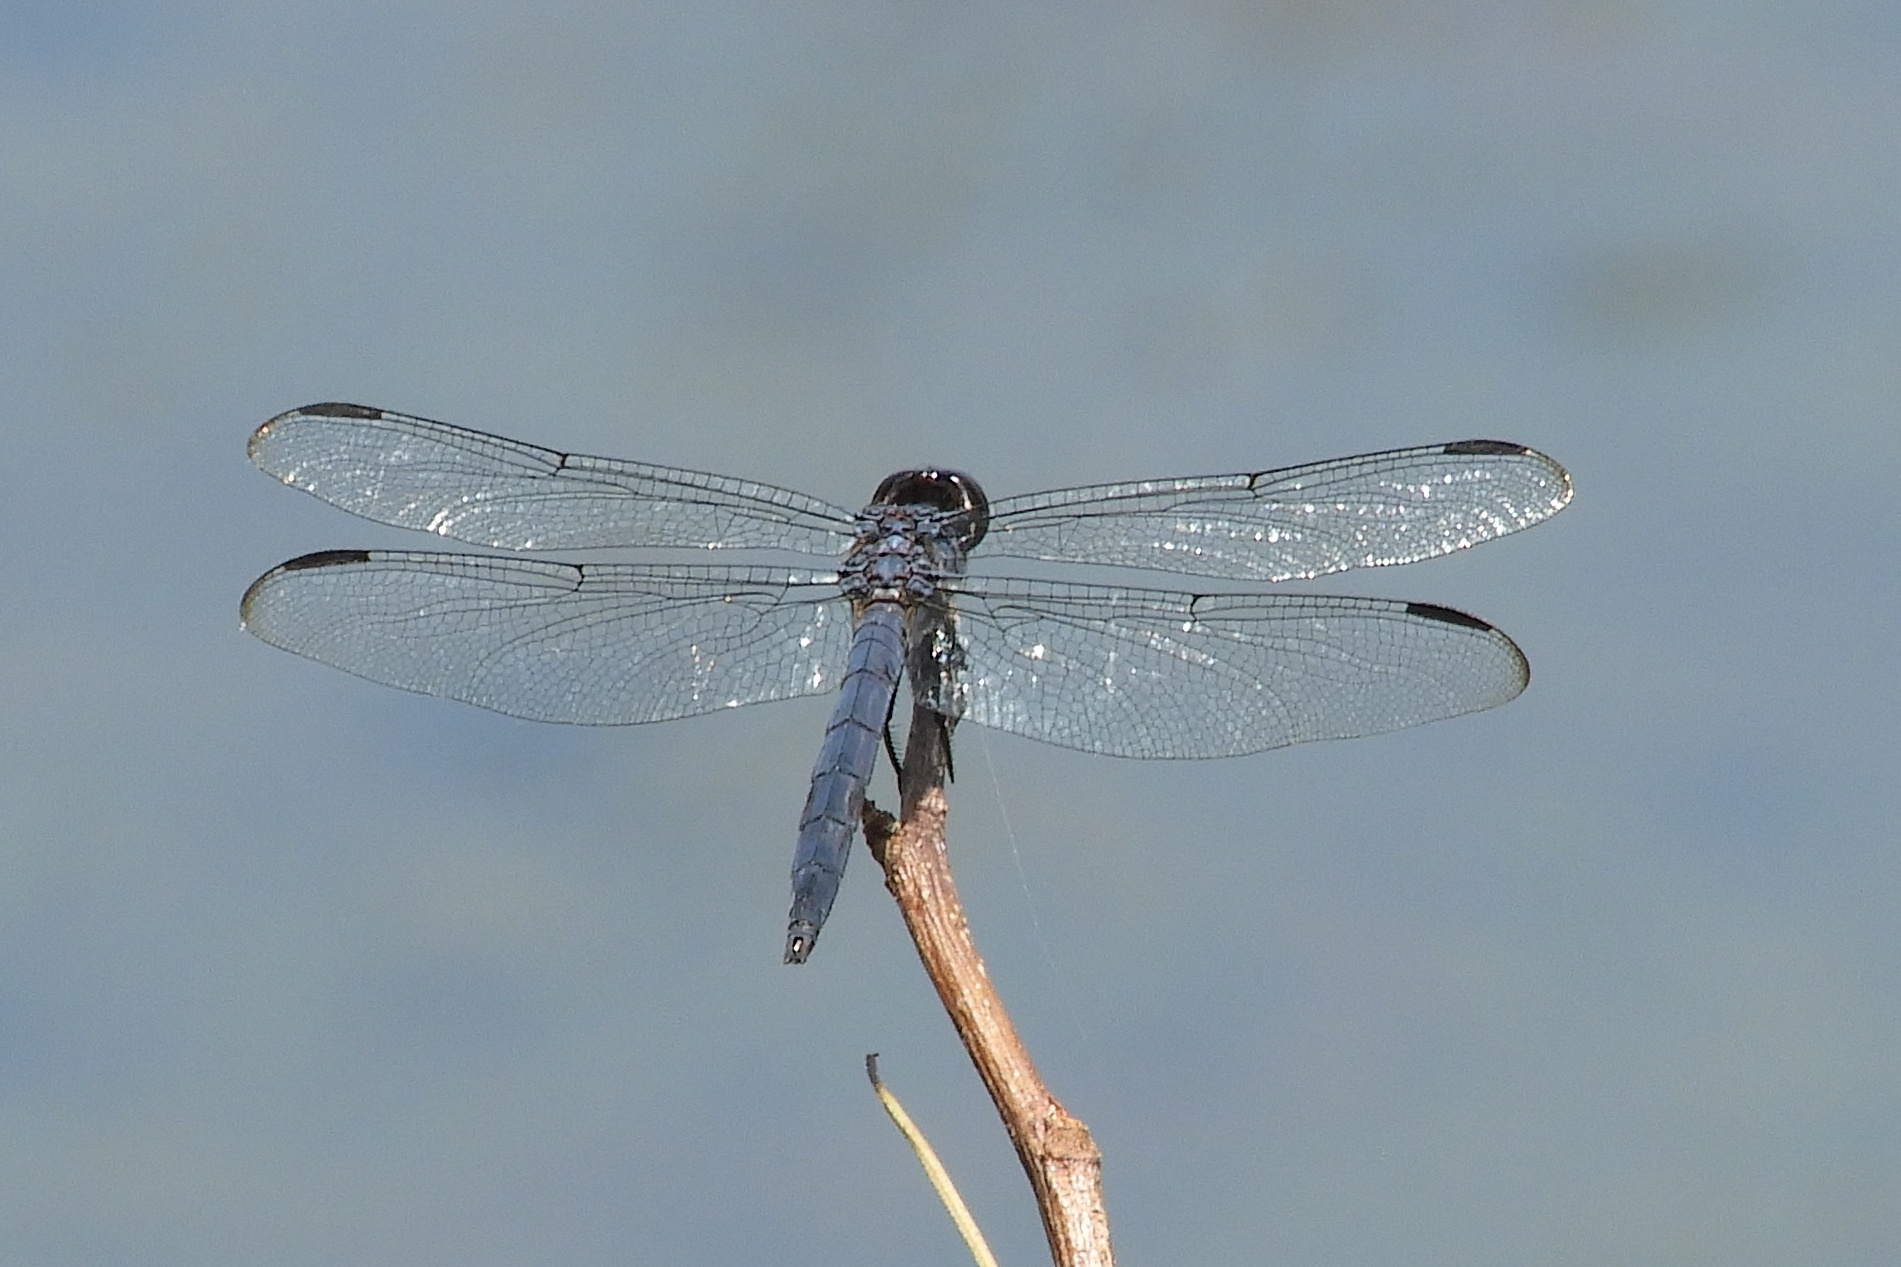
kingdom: Animalia
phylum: Arthropoda
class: Insecta
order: Odonata
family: Libellulidae
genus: Libellula
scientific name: Libellula incesta
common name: Slaty skimmer
